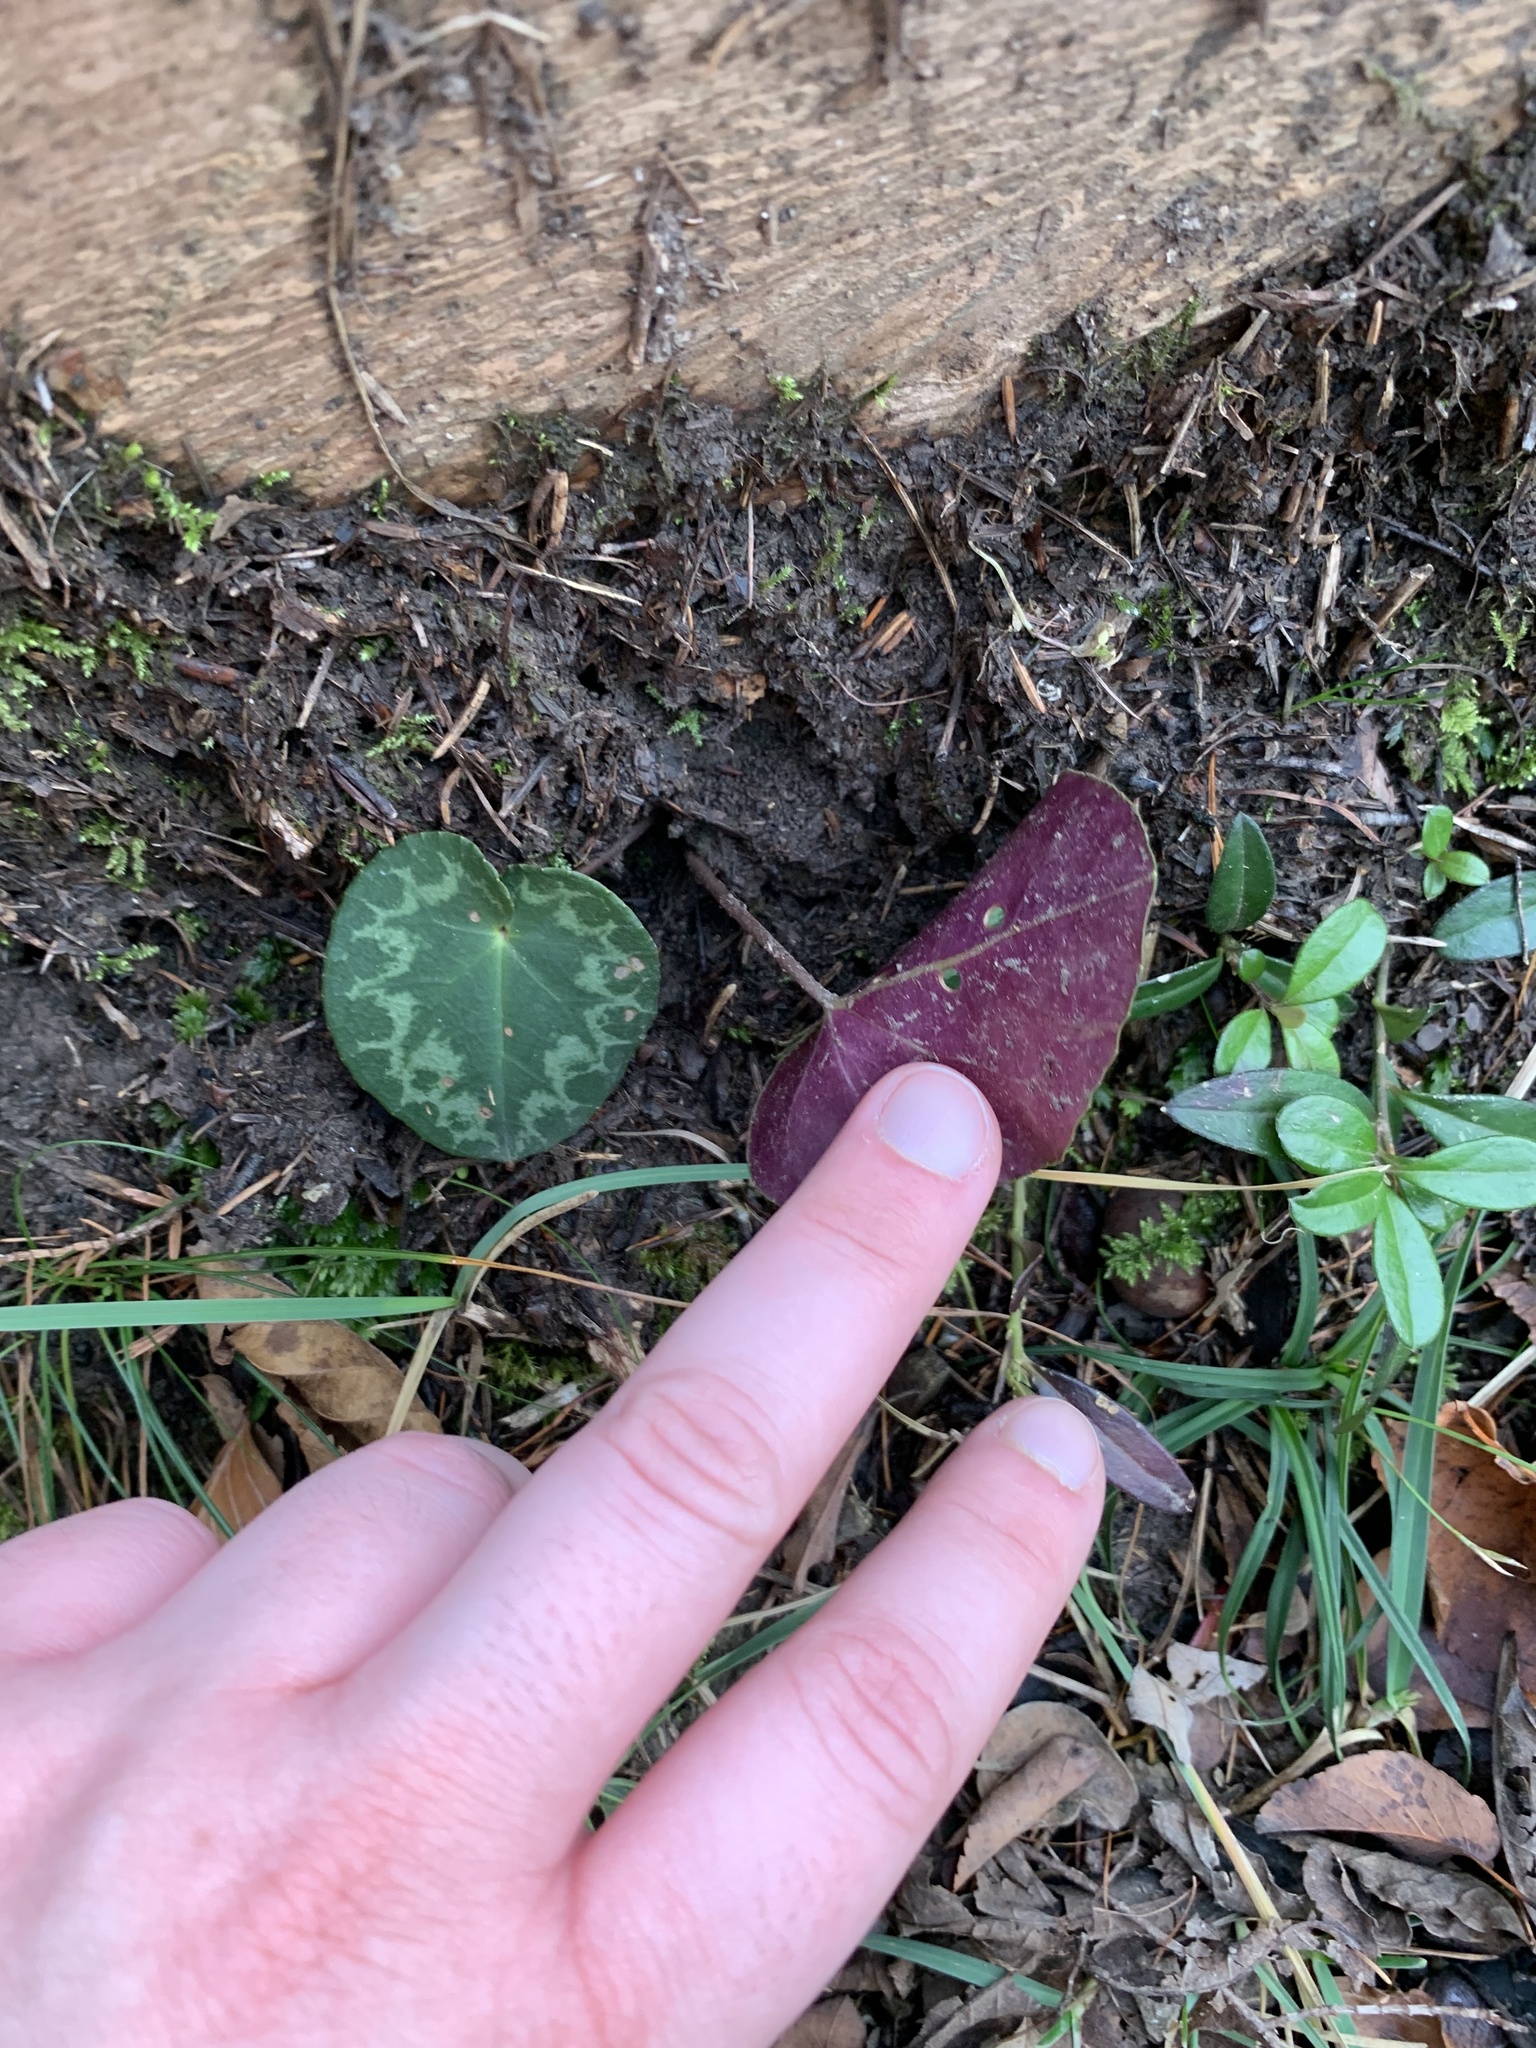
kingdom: Plantae
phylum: Tracheophyta
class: Magnoliopsida
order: Ericales
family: Primulaceae
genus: Cyclamen
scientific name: Cyclamen purpurascens
